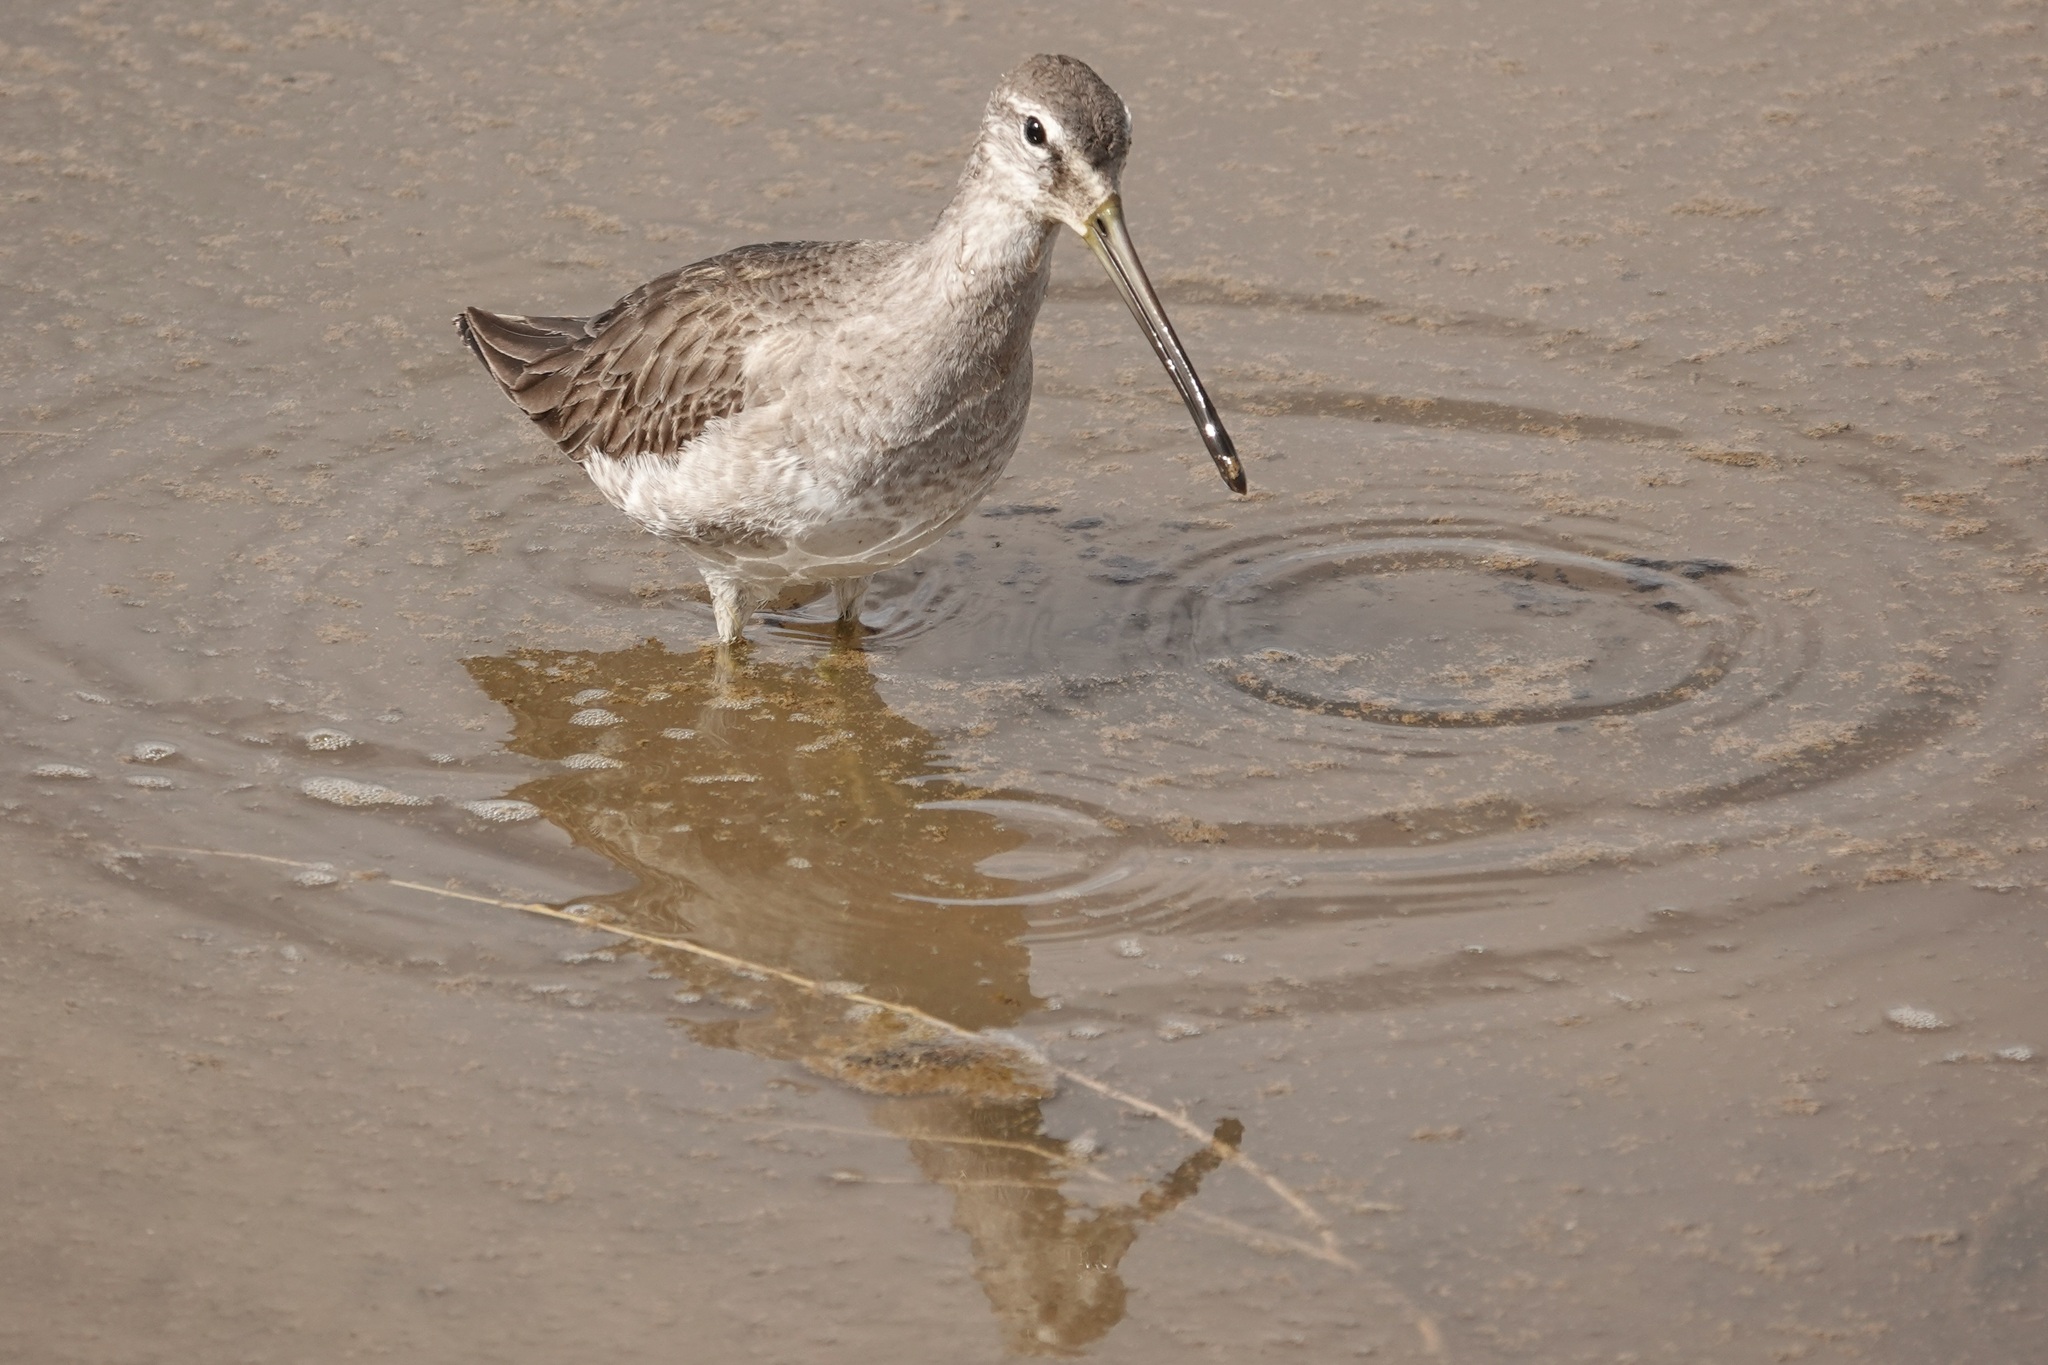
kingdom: Animalia
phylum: Chordata
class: Aves
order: Charadriiformes
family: Scolopacidae
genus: Limnodromus
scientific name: Limnodromus scolopaceus
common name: Long-billed dowitcher
